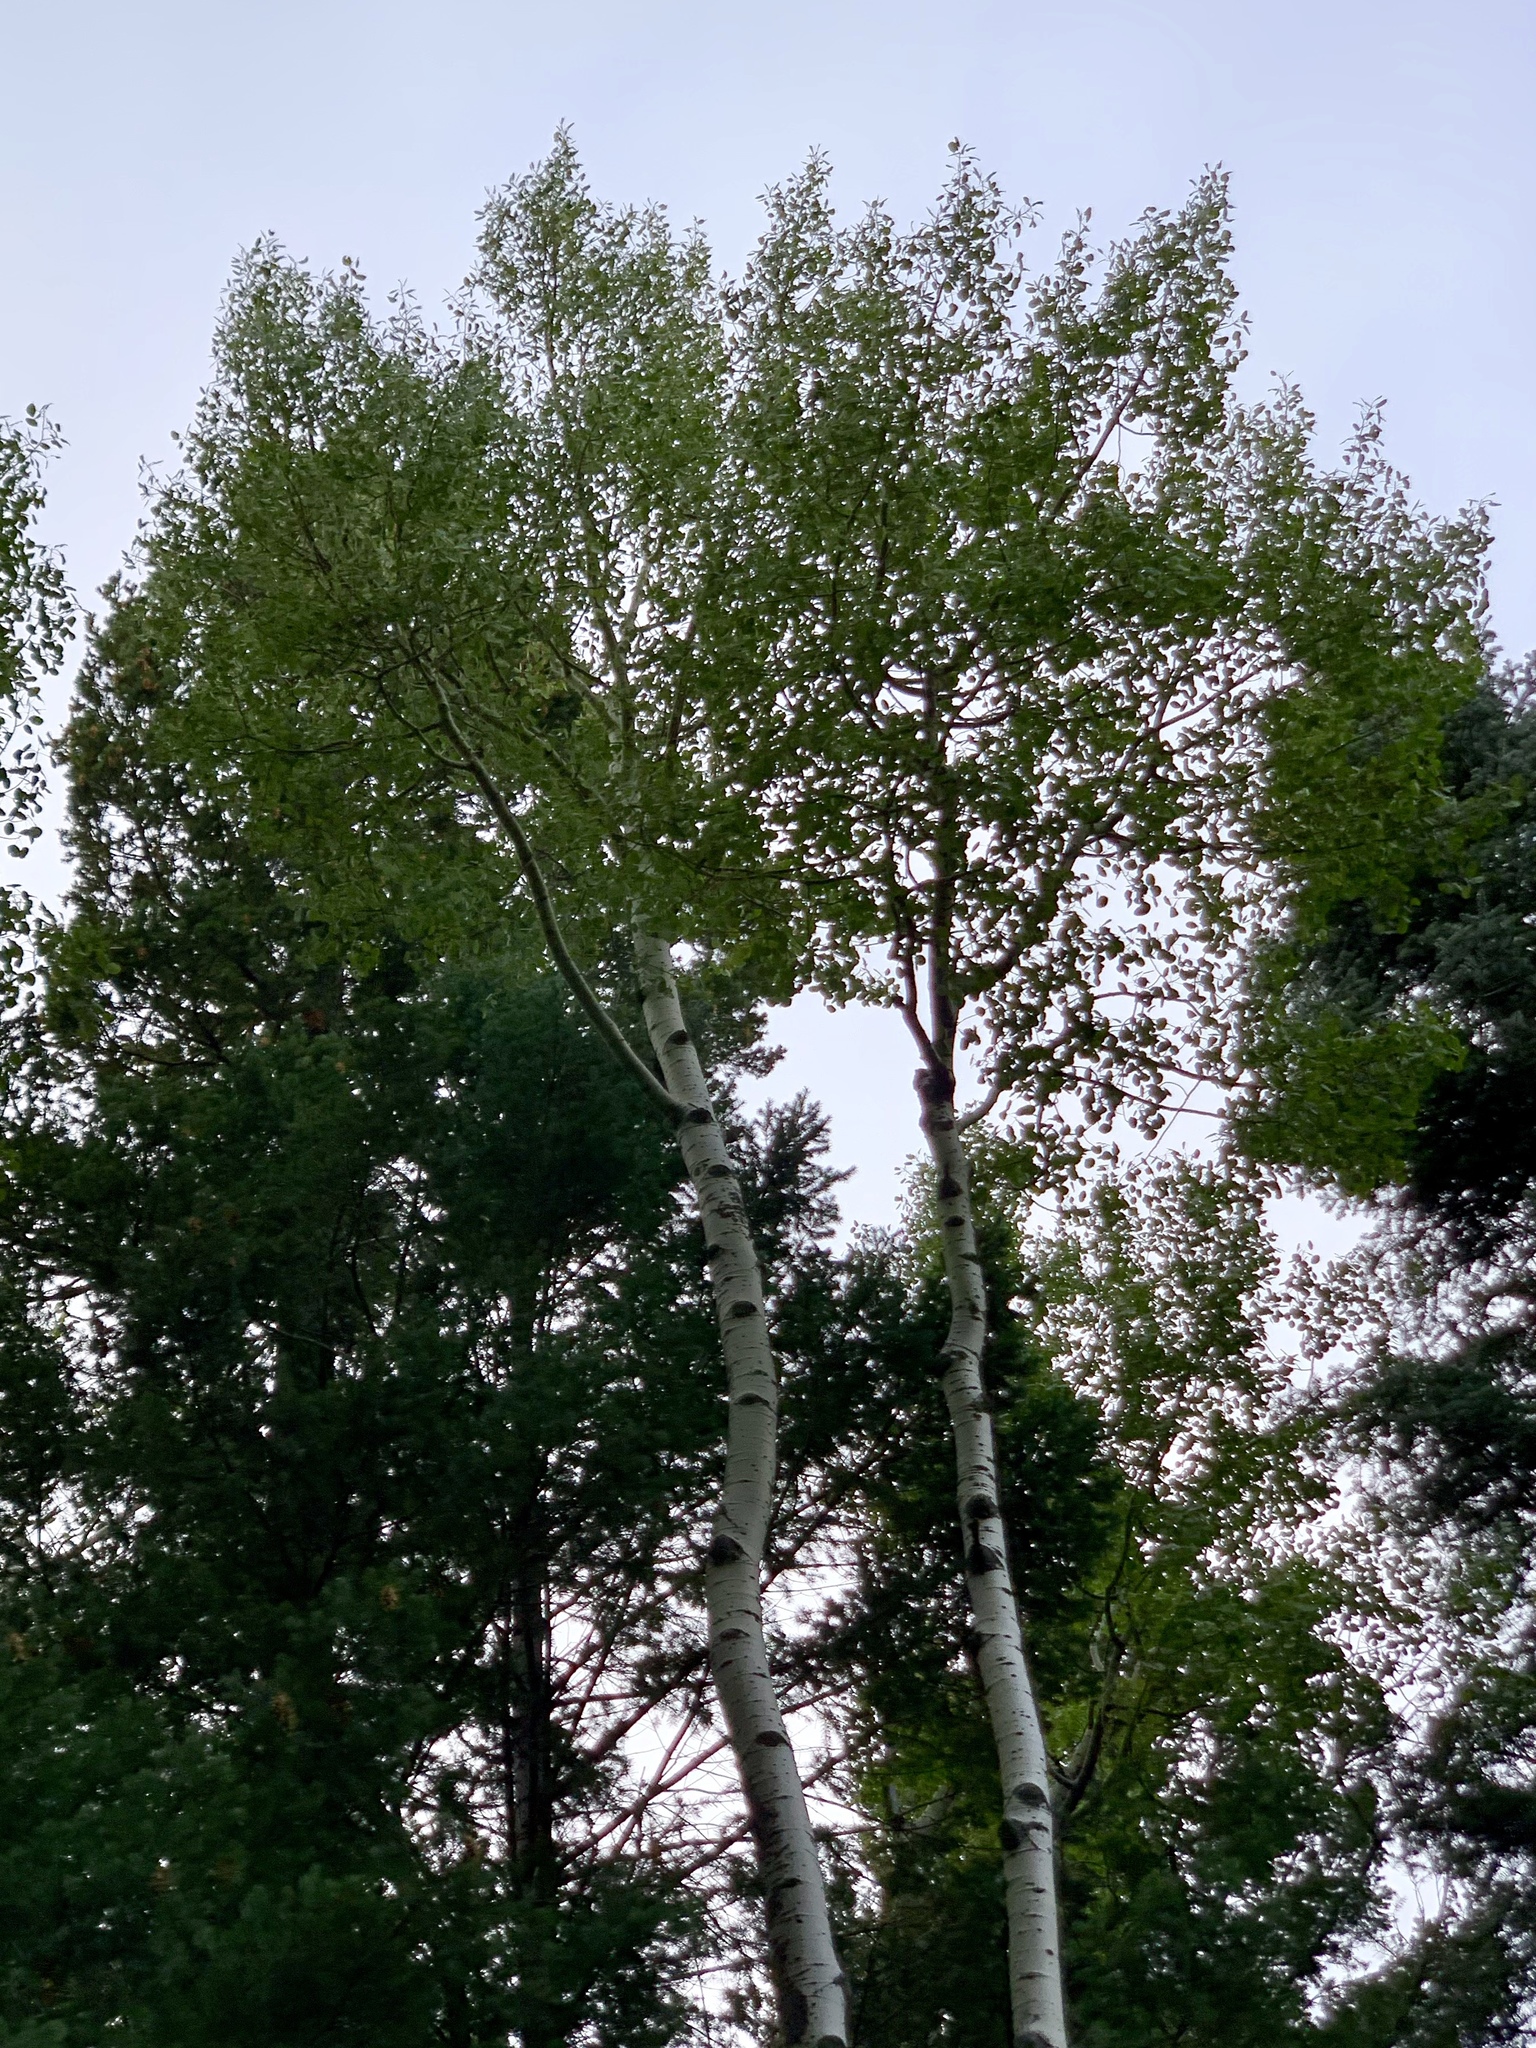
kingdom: Plantae
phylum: Tracheophyta
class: Magnoliopsida
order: Malpighiales
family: Salicaceae
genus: Populus
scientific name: Populus tremuloides
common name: Quaking aspen
